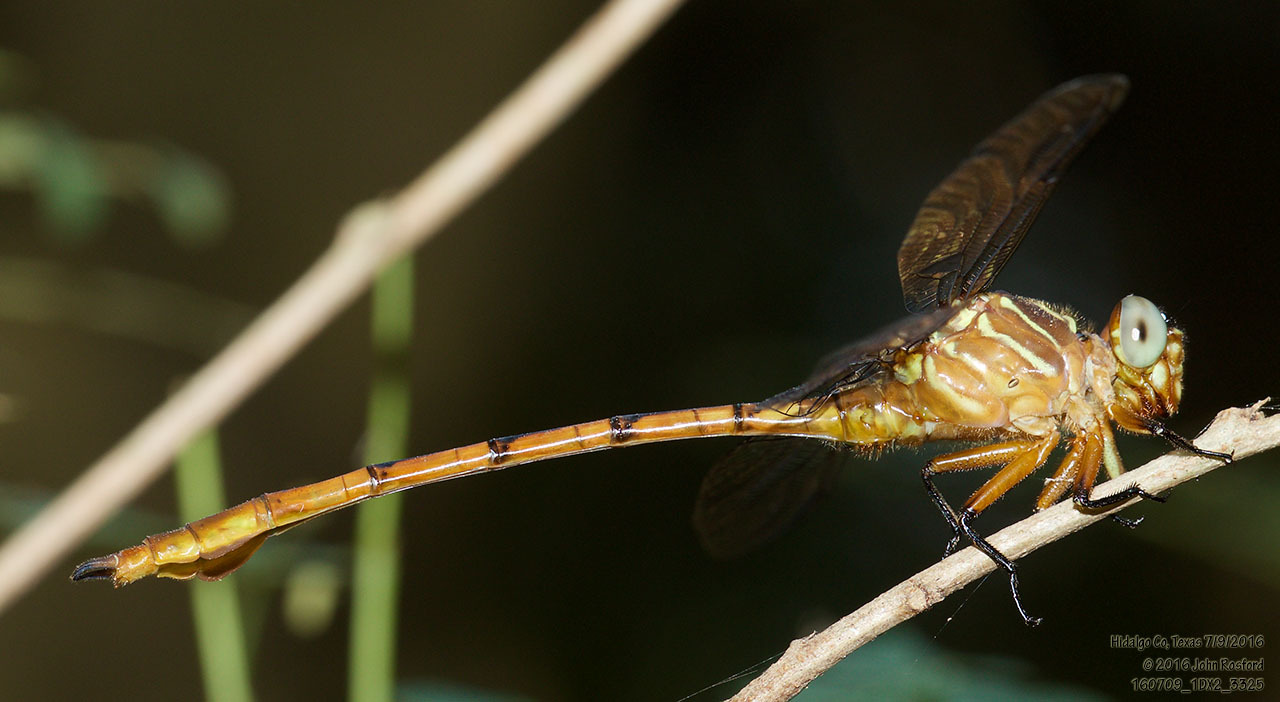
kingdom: Animalia
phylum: Arthropoda
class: Insecta
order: Odonata
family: Gomphidae
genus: Aphylla
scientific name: Aphylla protracta
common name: Narrow-striped forceptail
